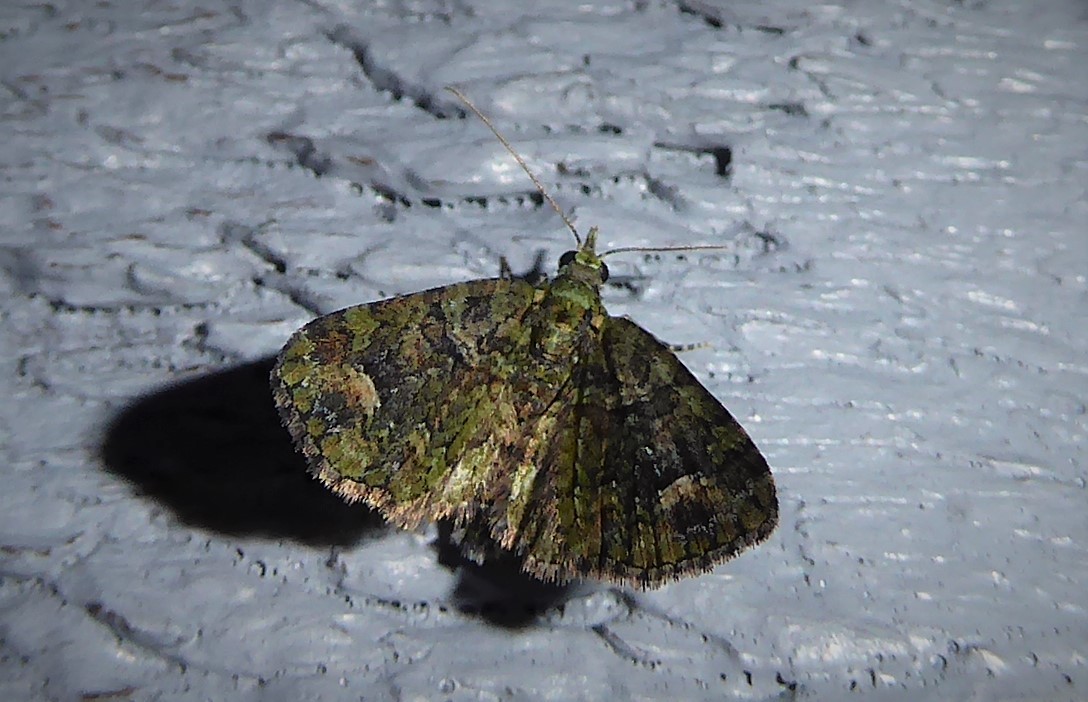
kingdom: Animalia
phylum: Arthropoda
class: Insecta
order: Lepidoptera
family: Geometridae
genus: Idaea
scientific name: Idaea mutanda
